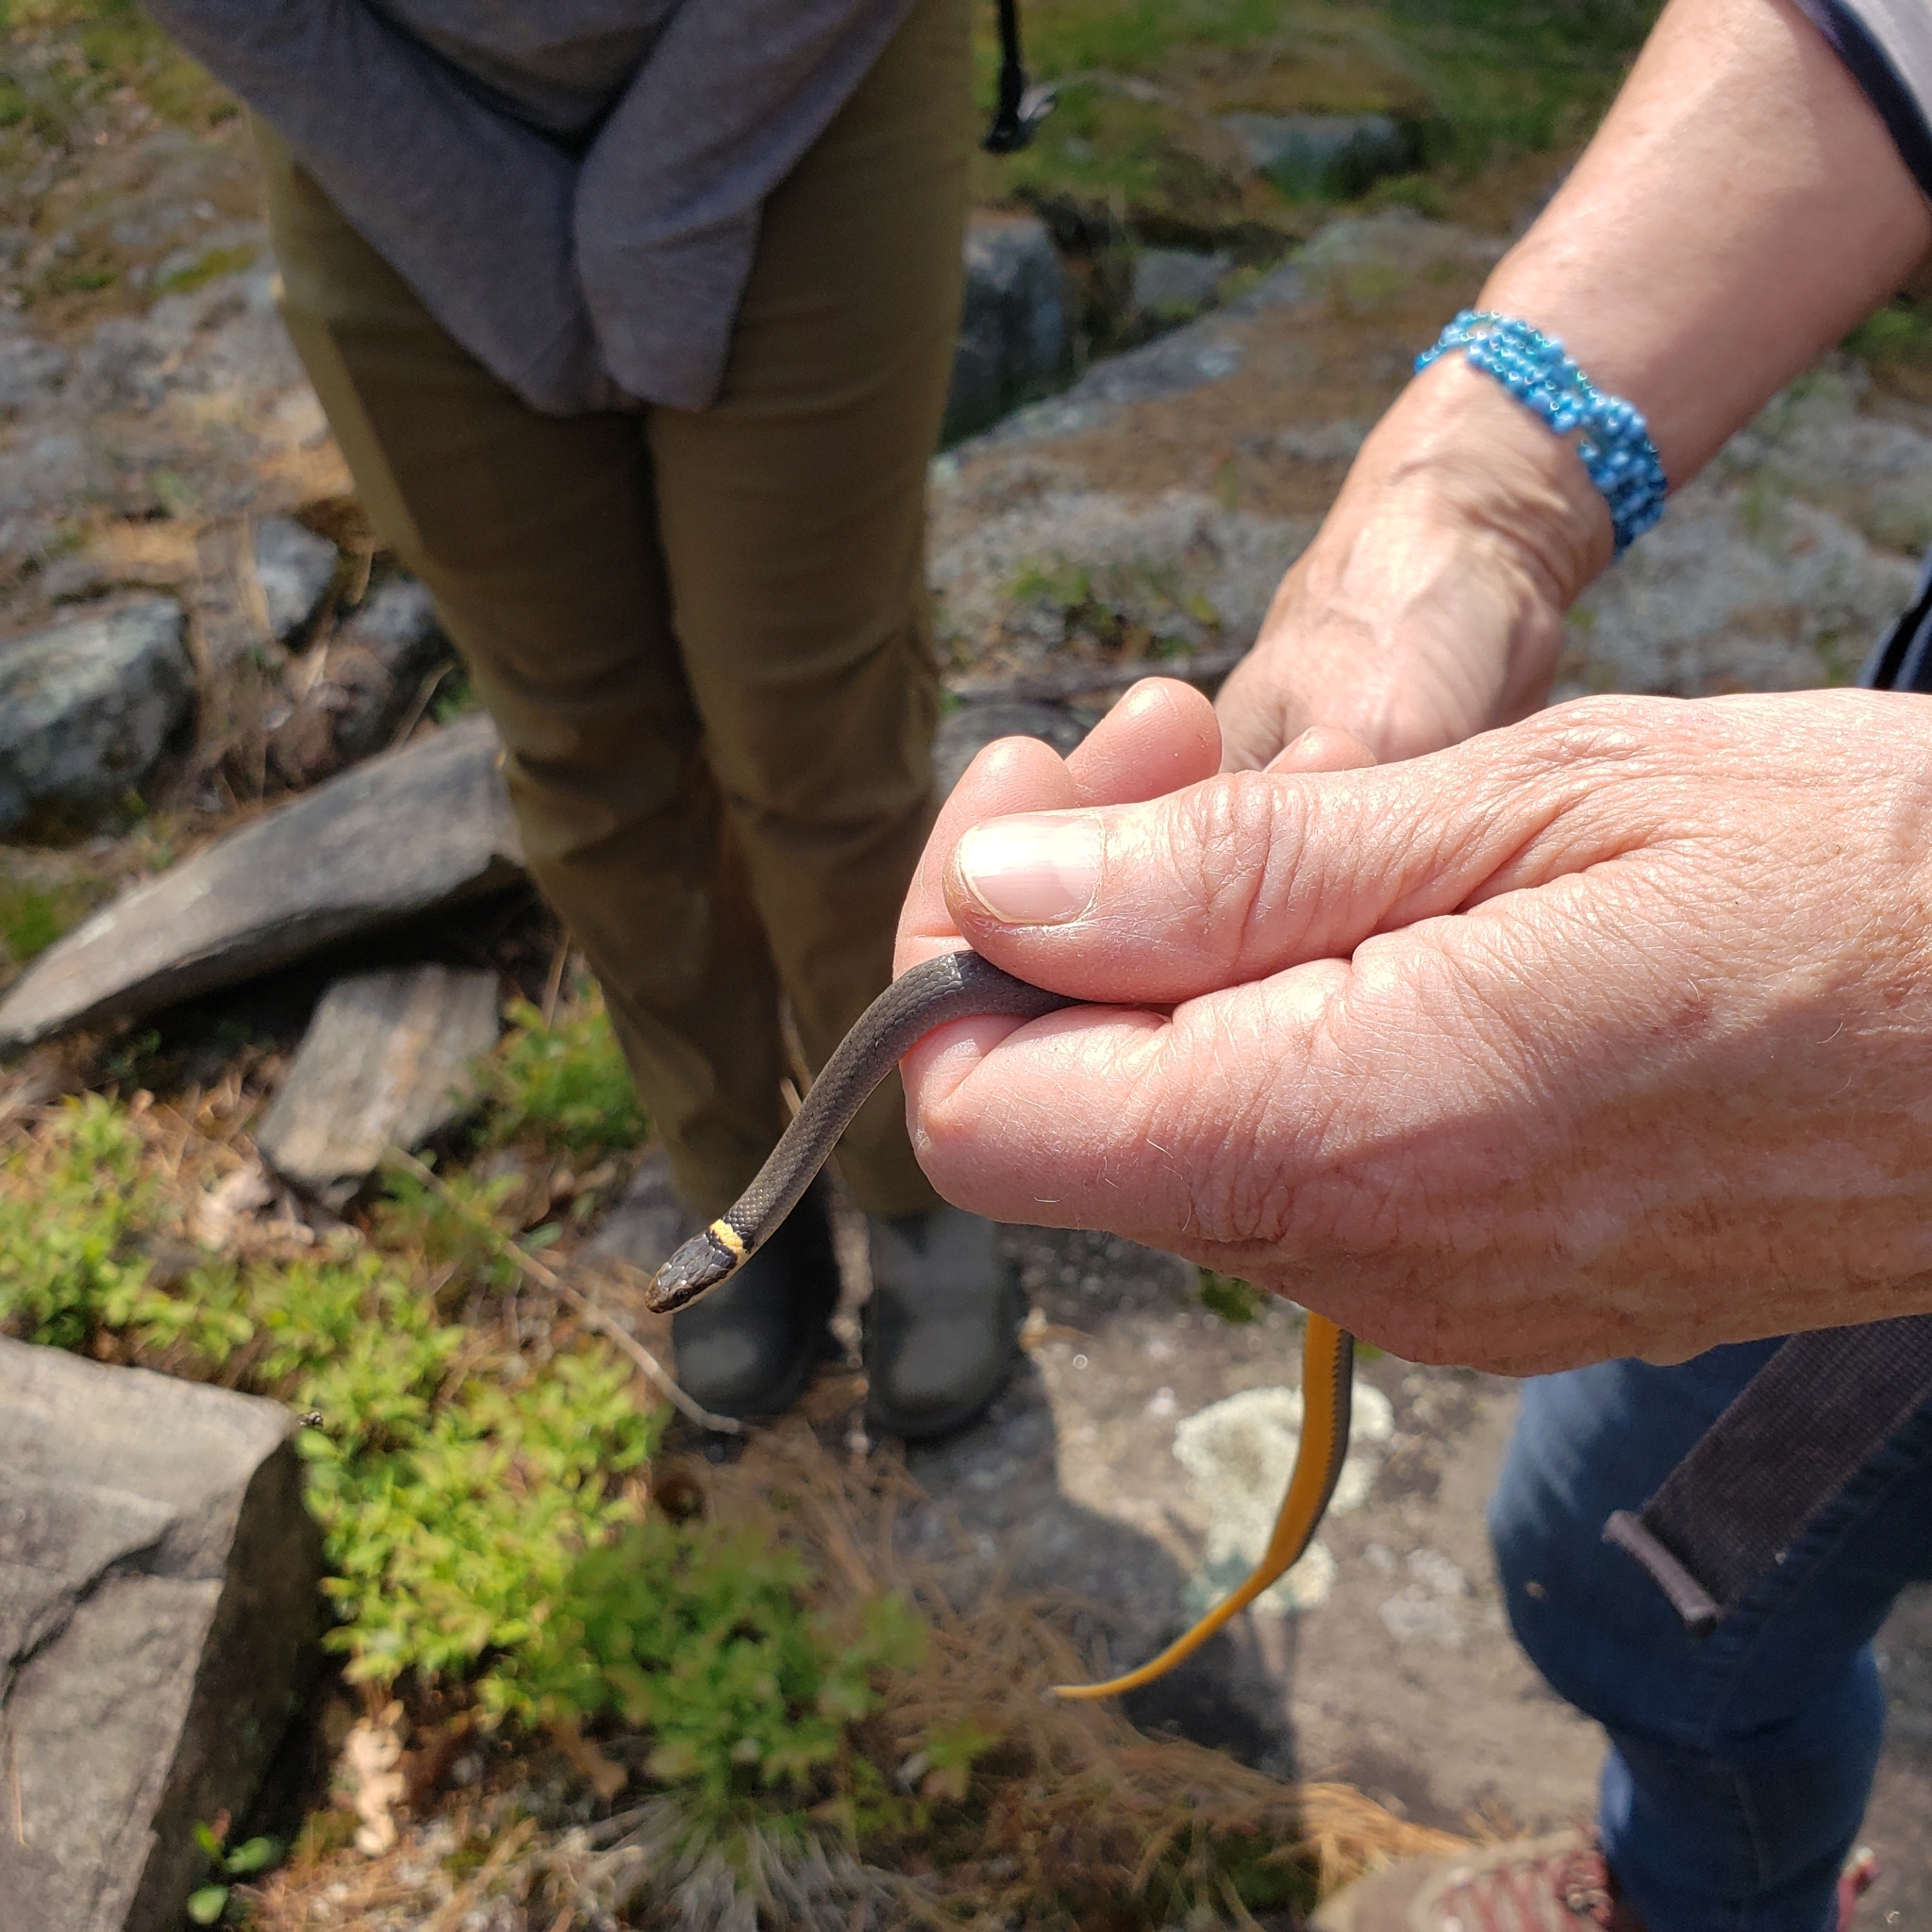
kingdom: Animalia
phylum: Chordata
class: Squamata
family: Colubridae
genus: Diadophis
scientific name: Diadophis punctatus
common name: Ringneck snake
